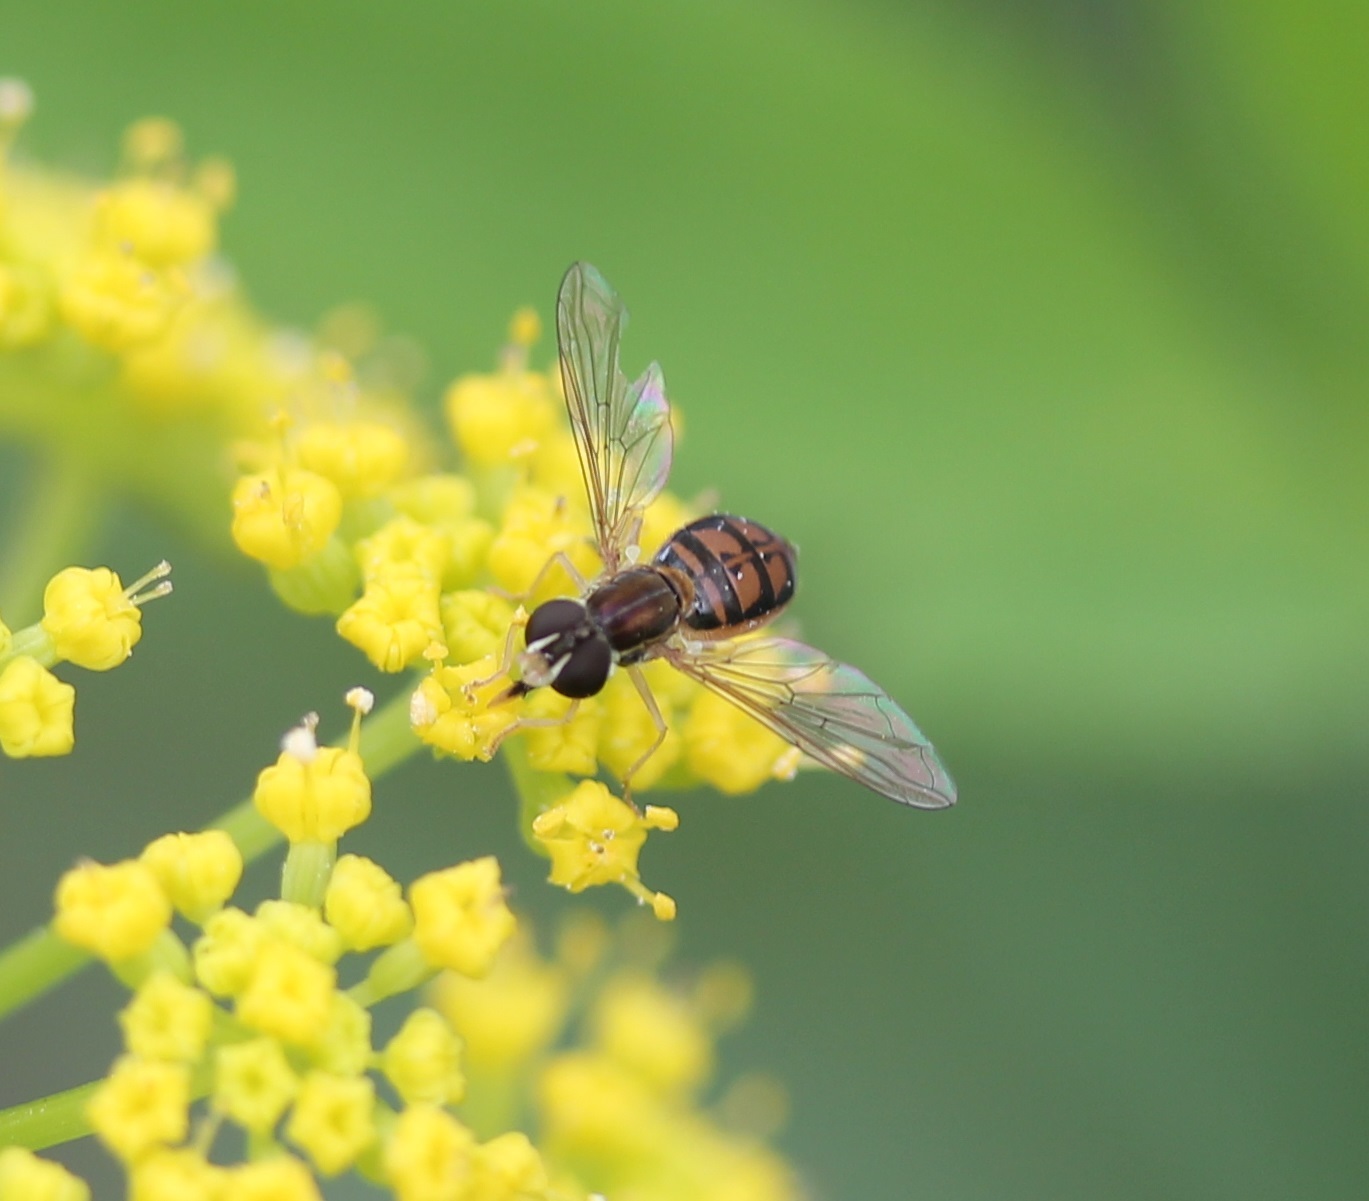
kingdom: Animalia
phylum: Arthropoda
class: Insecta
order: Diptera
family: Syrphidae
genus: Toxomerus
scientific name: Toxomerus marginatus
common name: Syrphid fly
